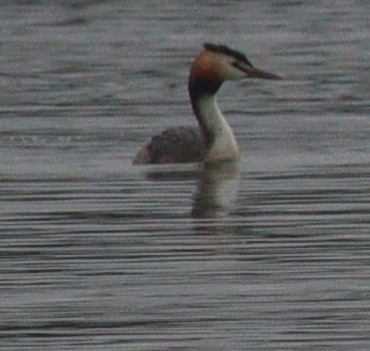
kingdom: Animalia
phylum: Chordata
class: Aves
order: Podicipediformes
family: Podicipedidae
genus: Podiceps
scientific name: Podiceps cristatus
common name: Great crested grebe
